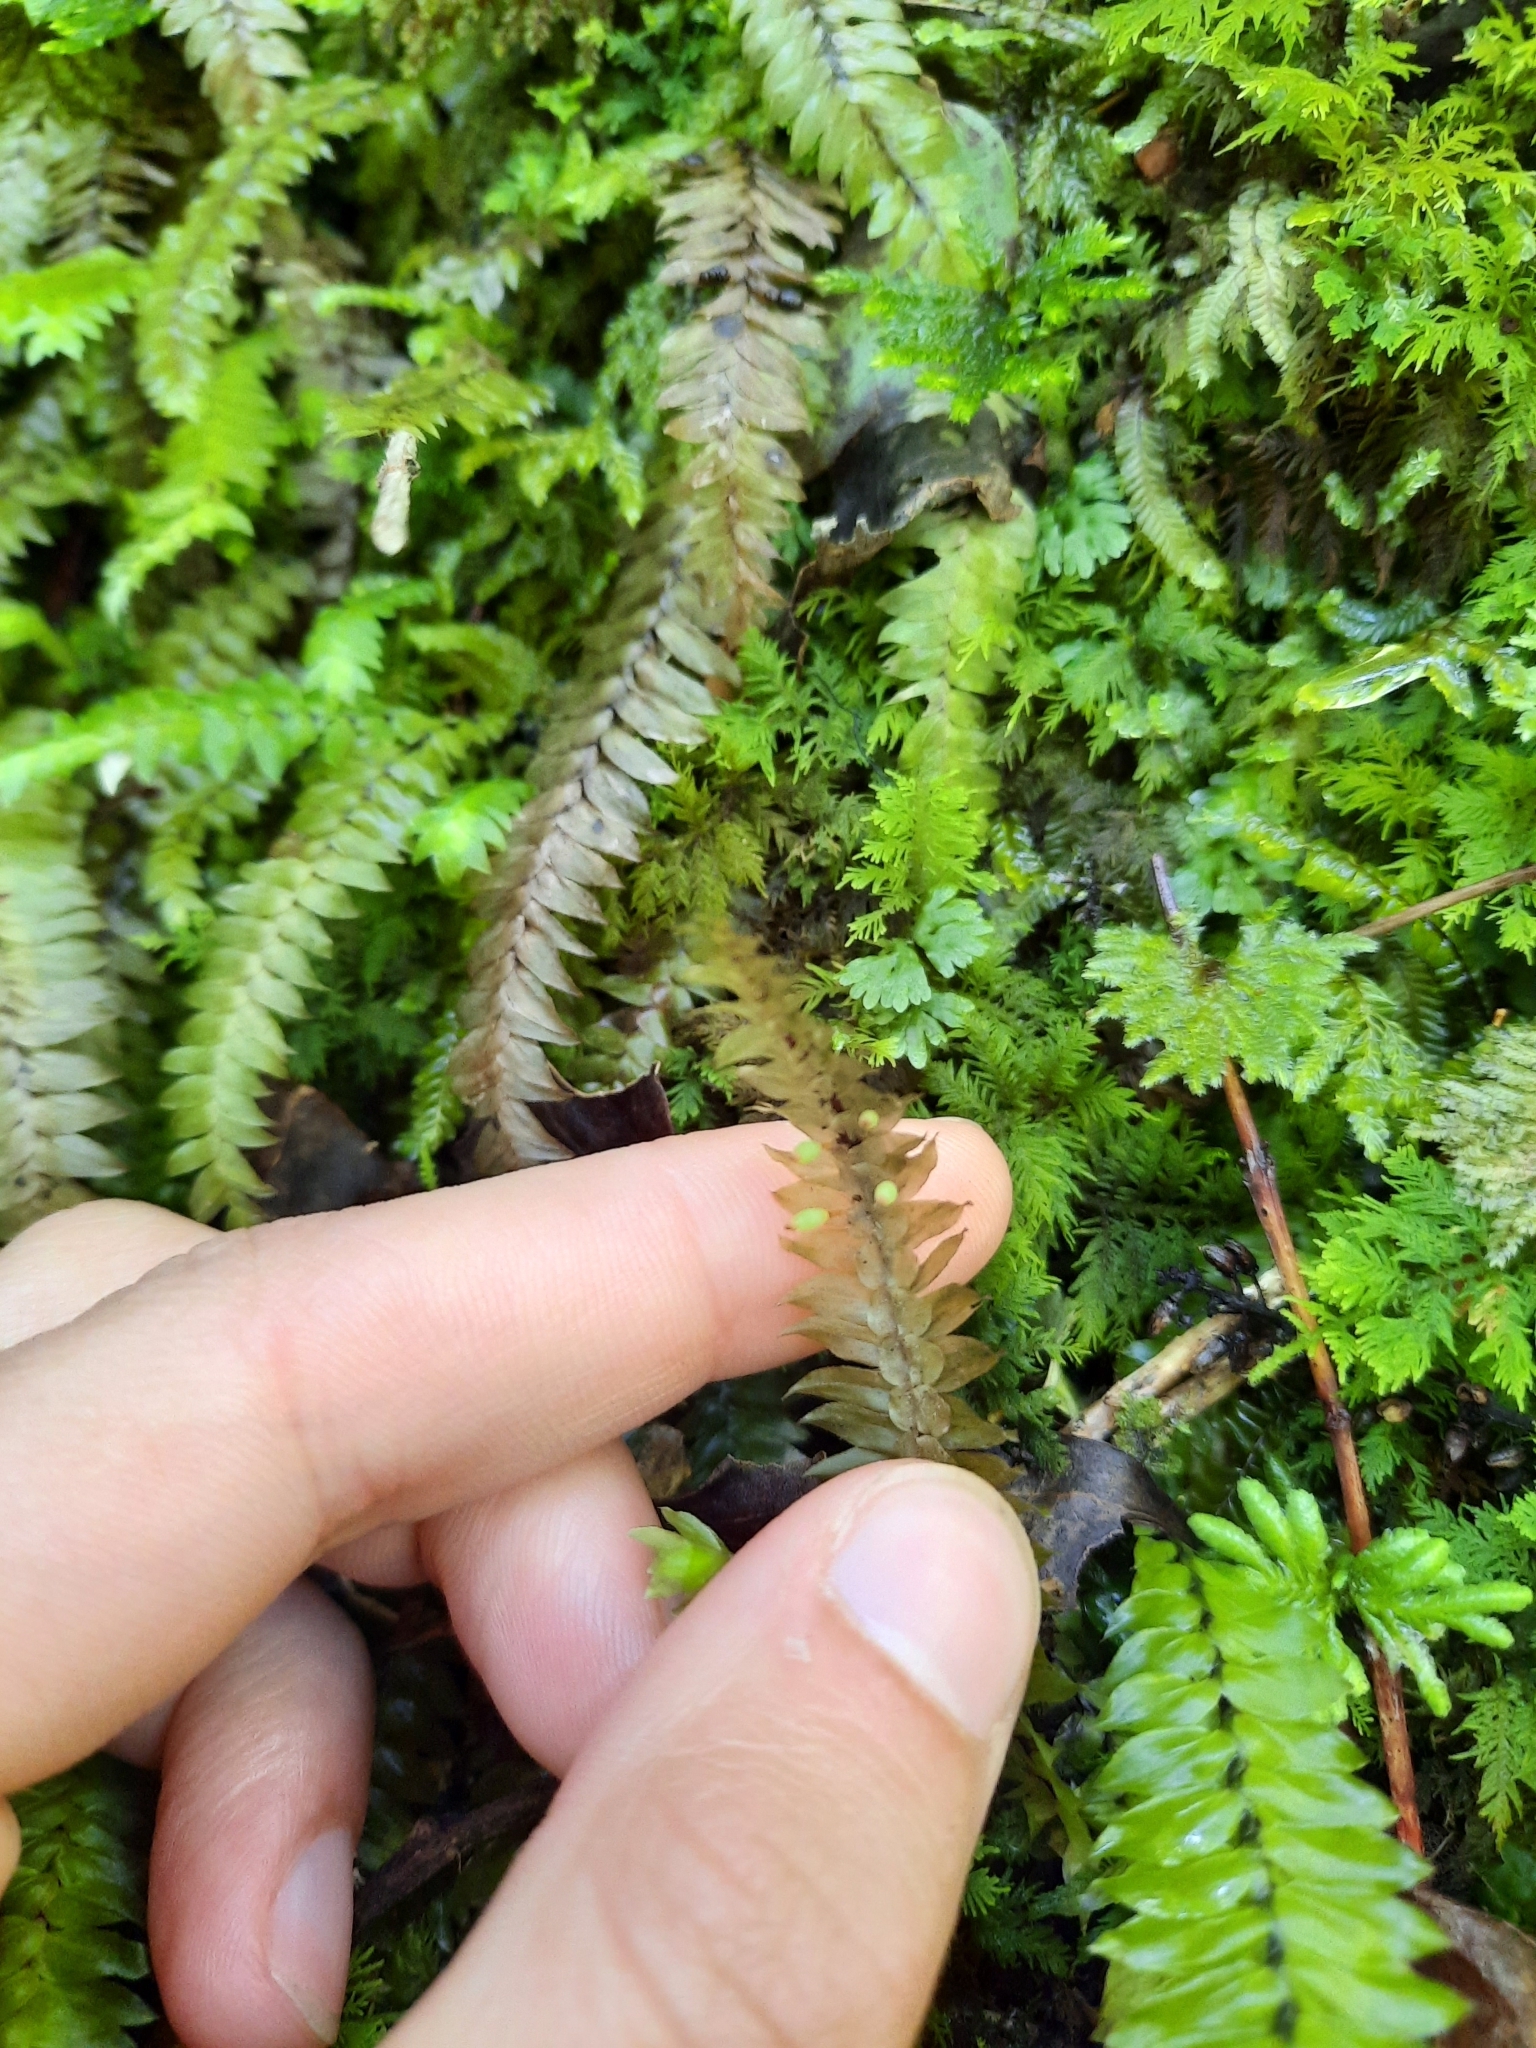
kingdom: Plantae
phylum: Bryophyta
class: Bryopsida
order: Hypopterygiales
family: Hypopterygiaceae
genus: Cyathophorum
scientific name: Cyathophorum bulbosum
